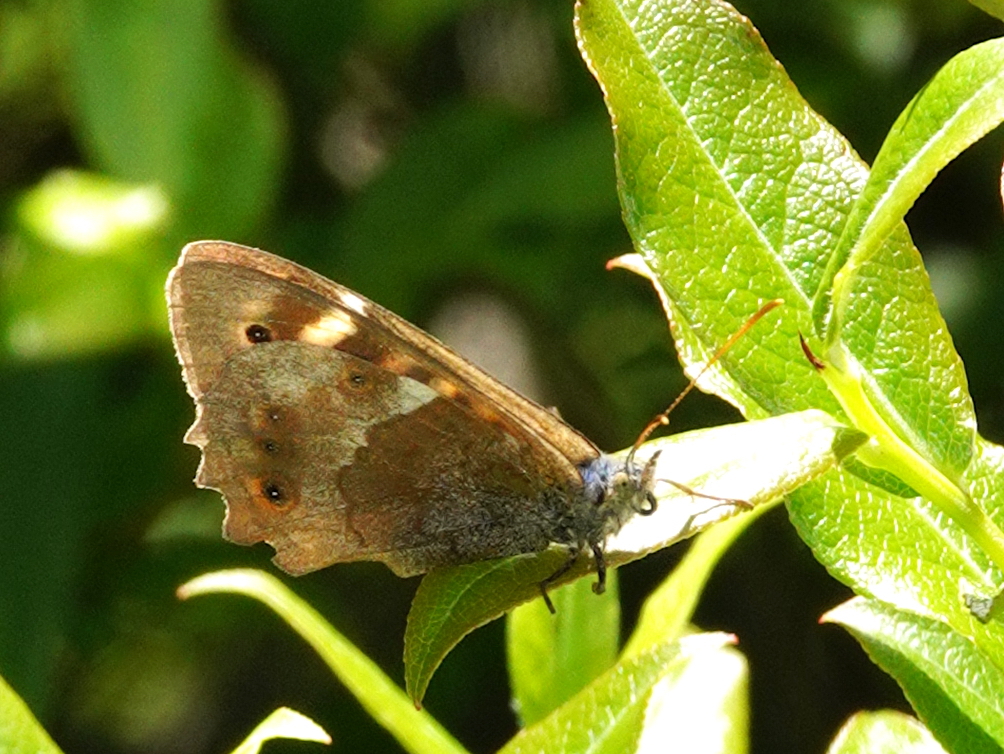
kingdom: Animalia
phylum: Arthropoda
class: Insecta
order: Lepidoptera
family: Nymphalidae
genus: Pararge
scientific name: Pararge
